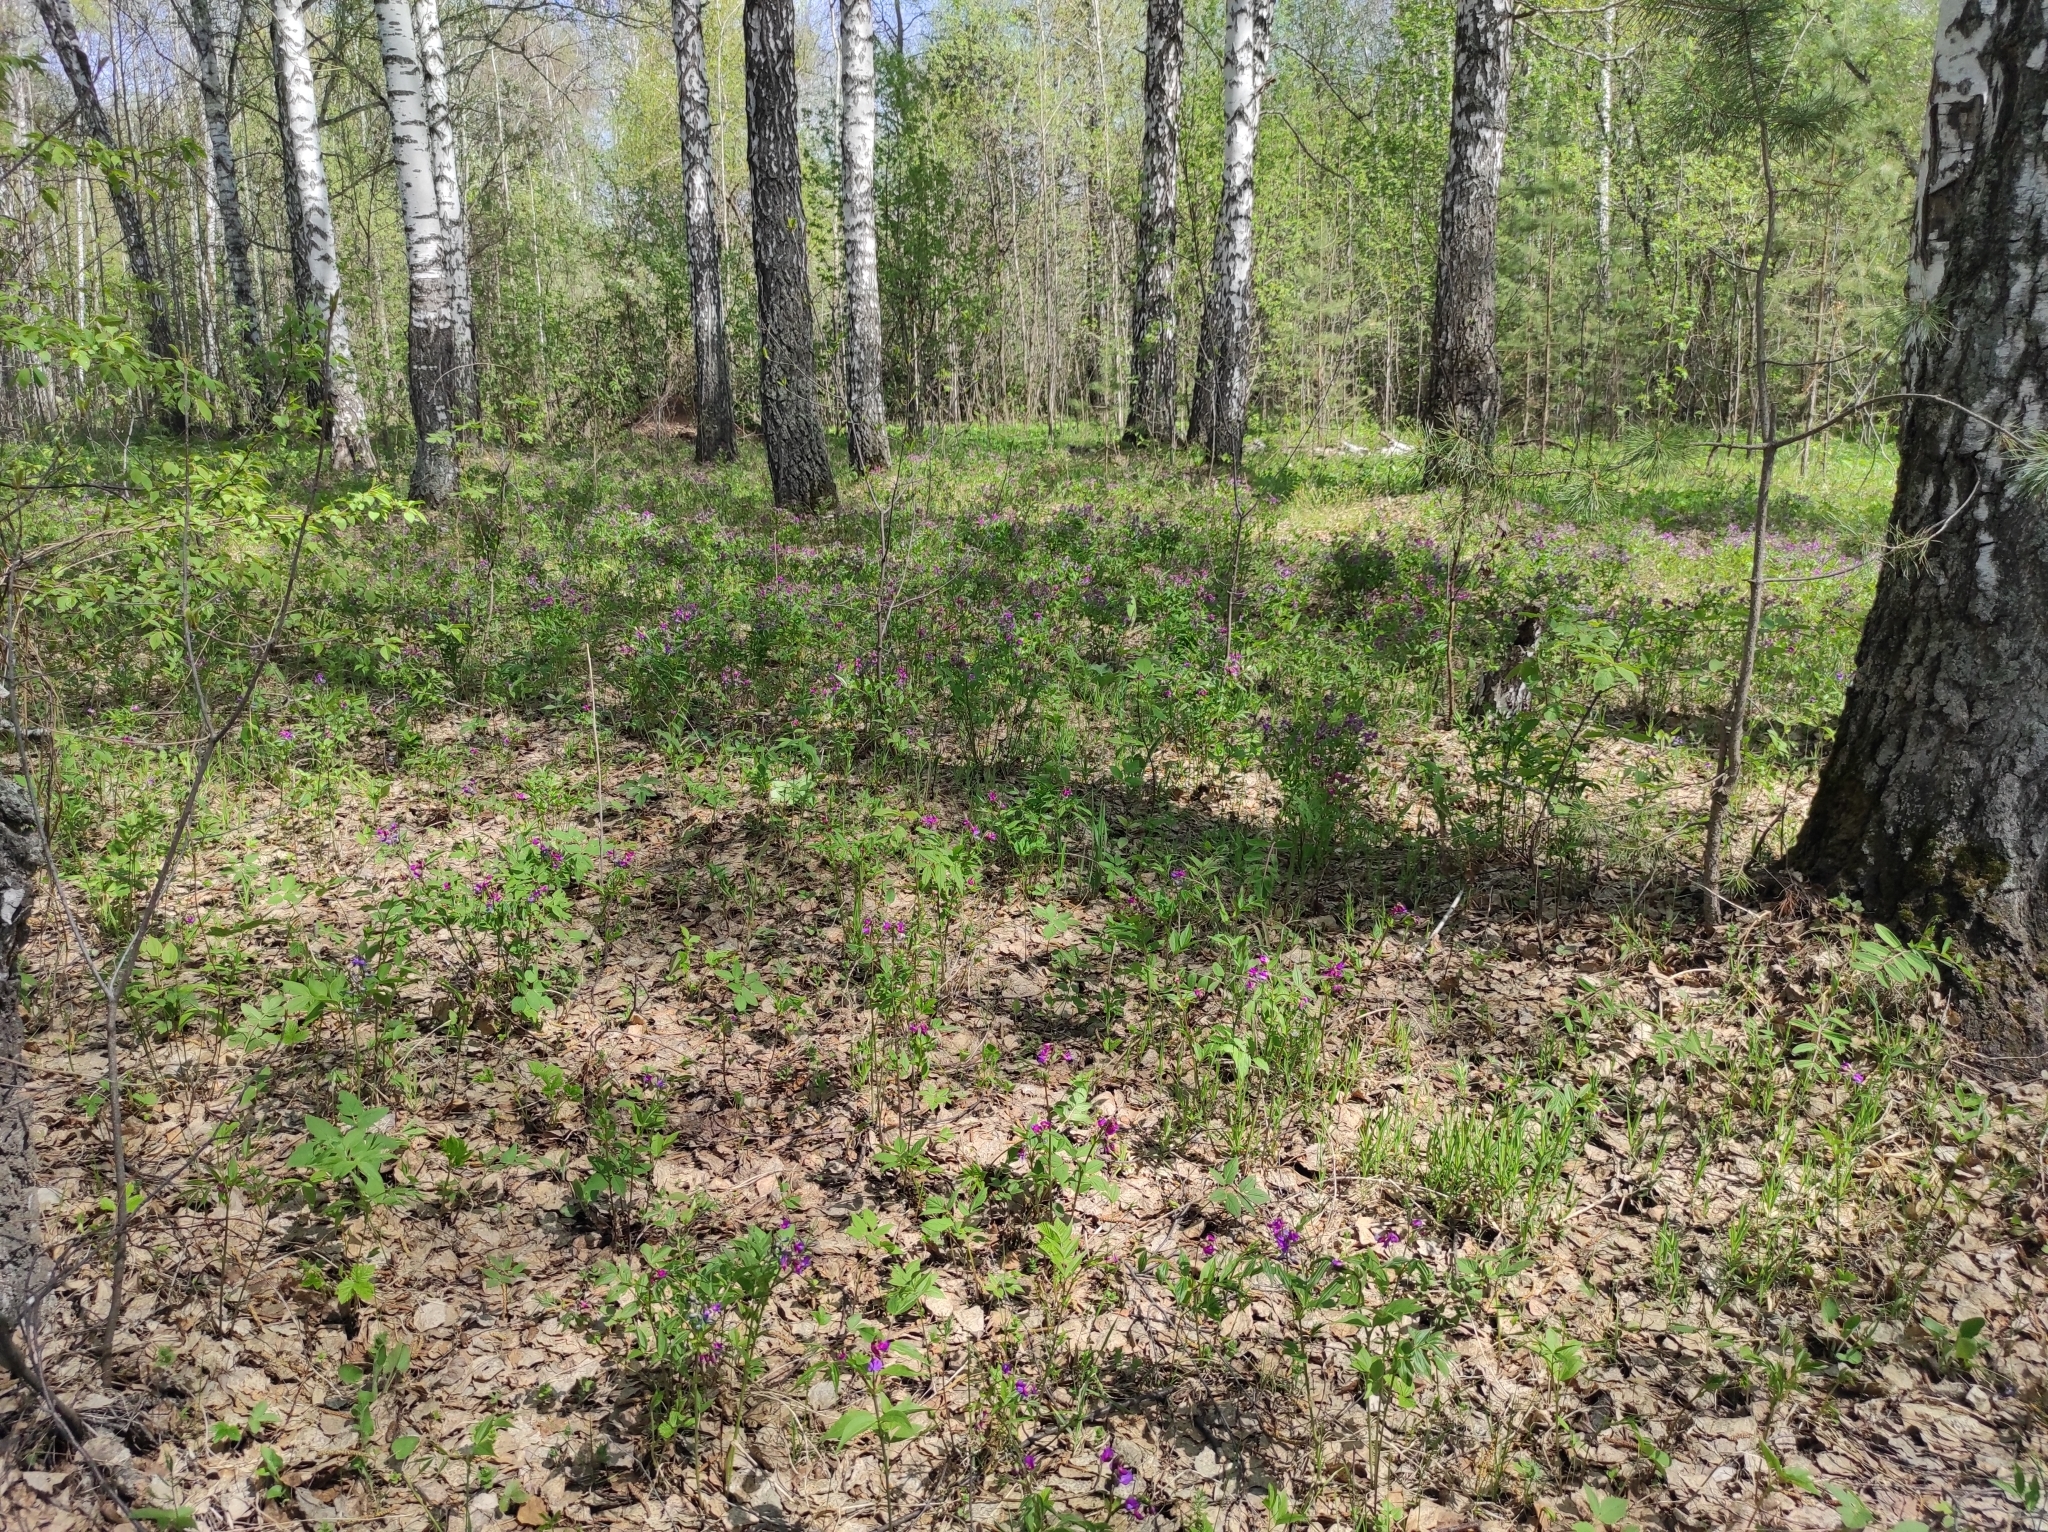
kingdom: Plantae
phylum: Tracheophyta
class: Magnoliopsida
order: Fabales
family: Fabaceae
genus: Lathyrus
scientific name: Lathyrus vernus
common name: Spring pea
